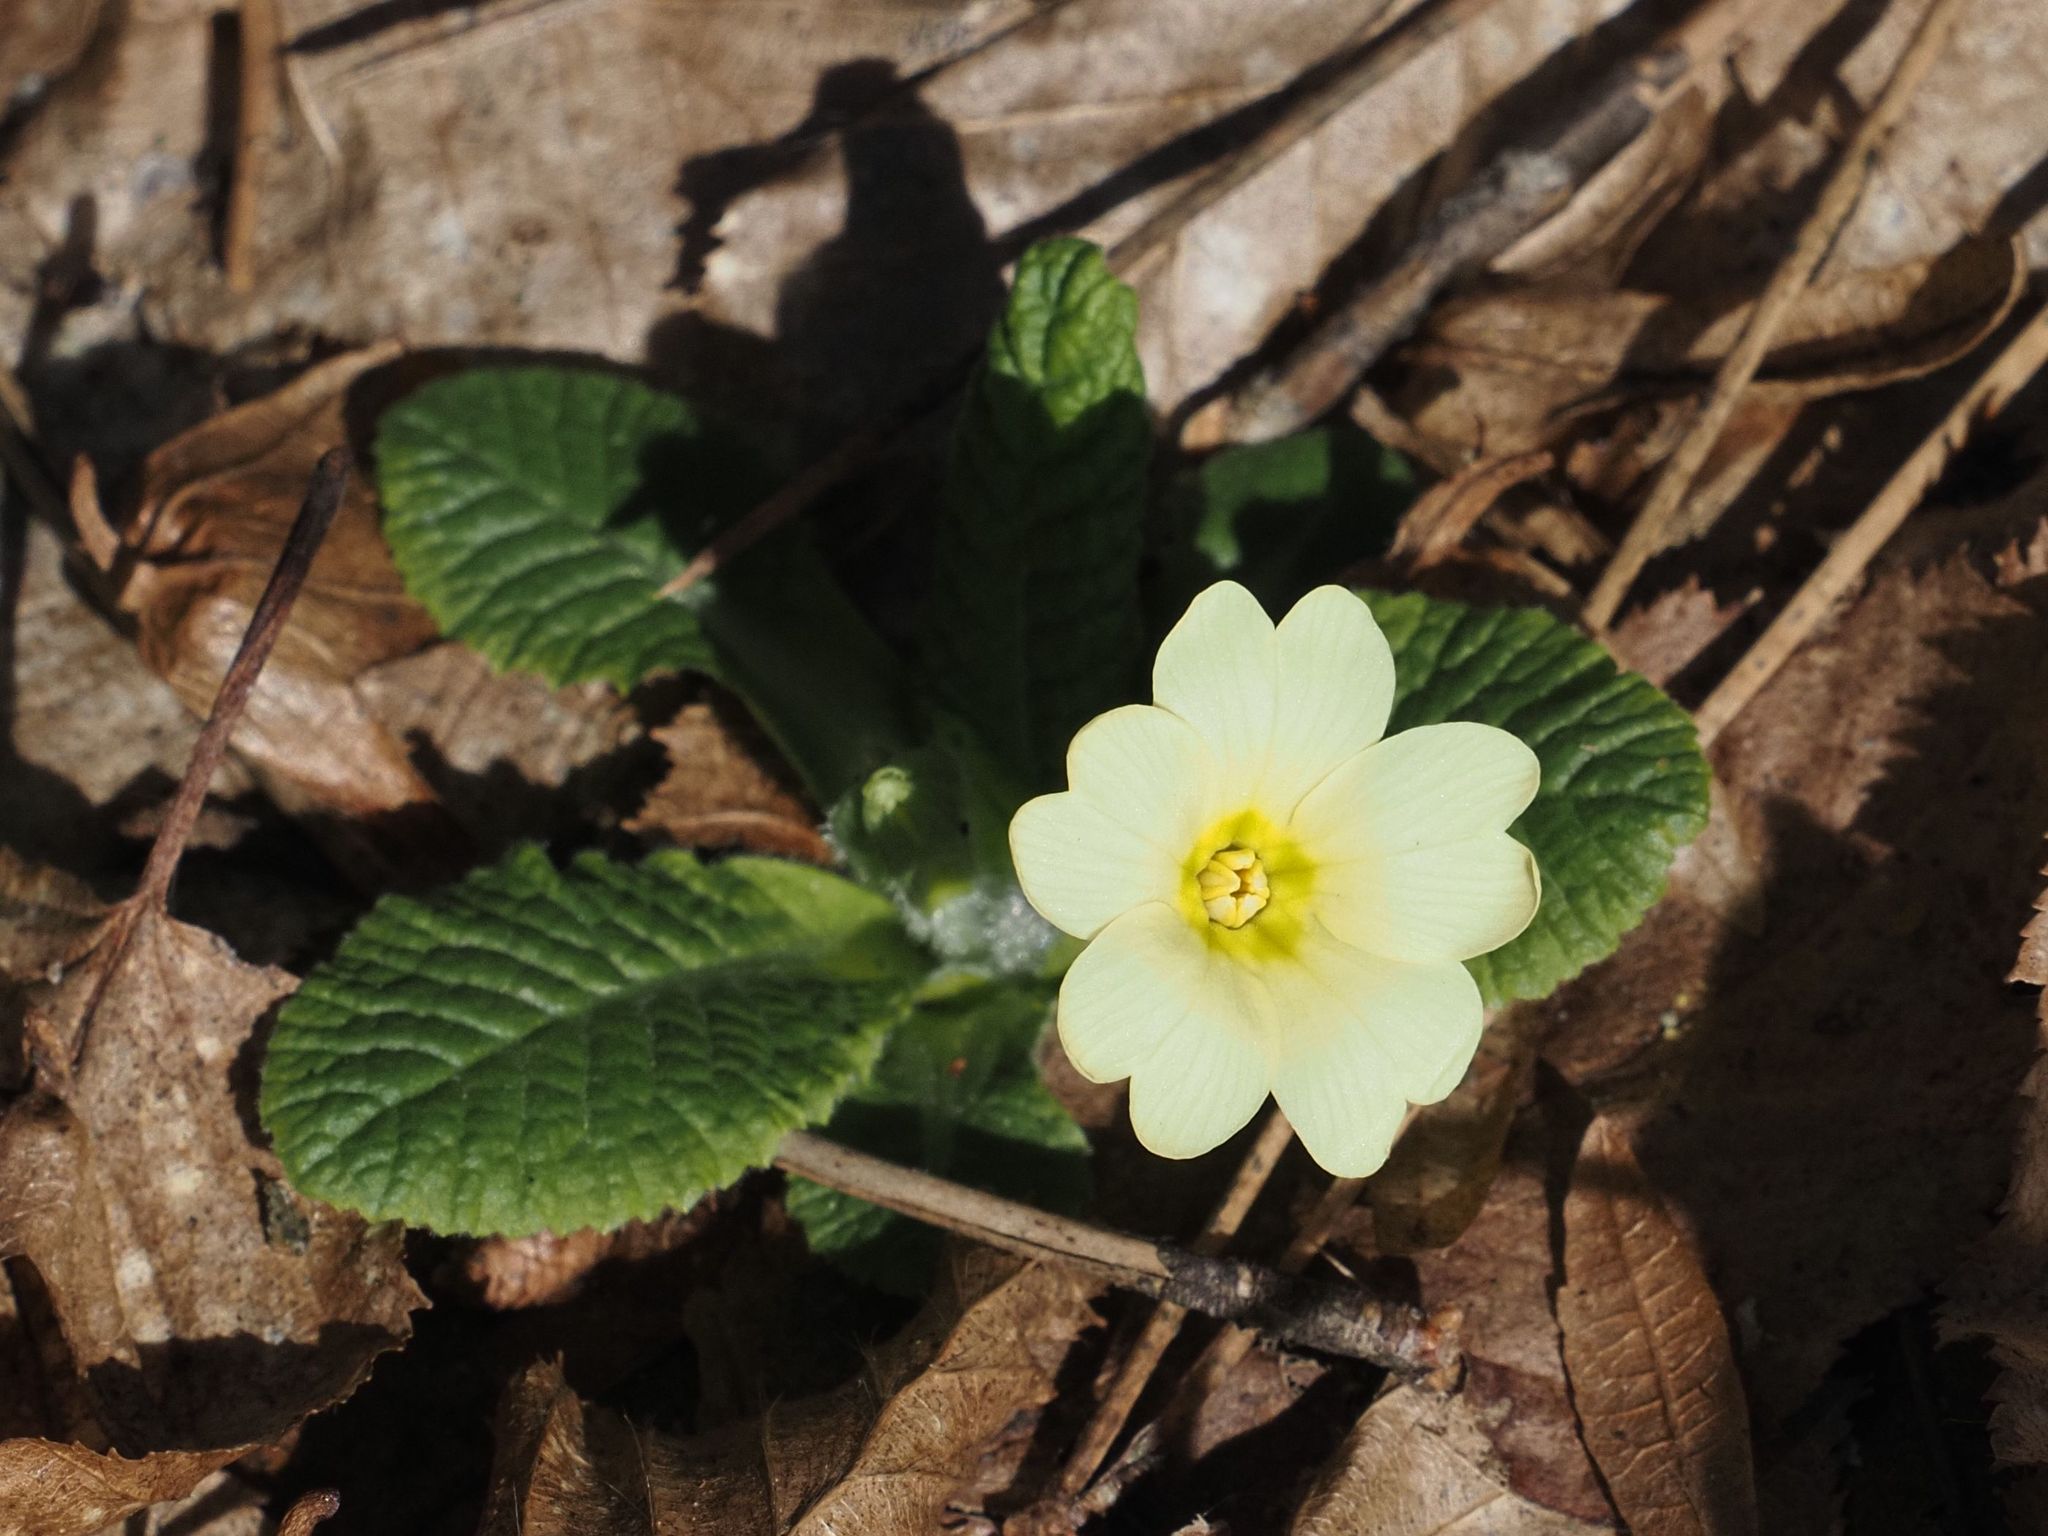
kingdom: Plantae
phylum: Tracheophyta
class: Magnoliopsida
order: Ericales
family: Primulaceae
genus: Primula
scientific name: Primula vulgaris
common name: Primrose
